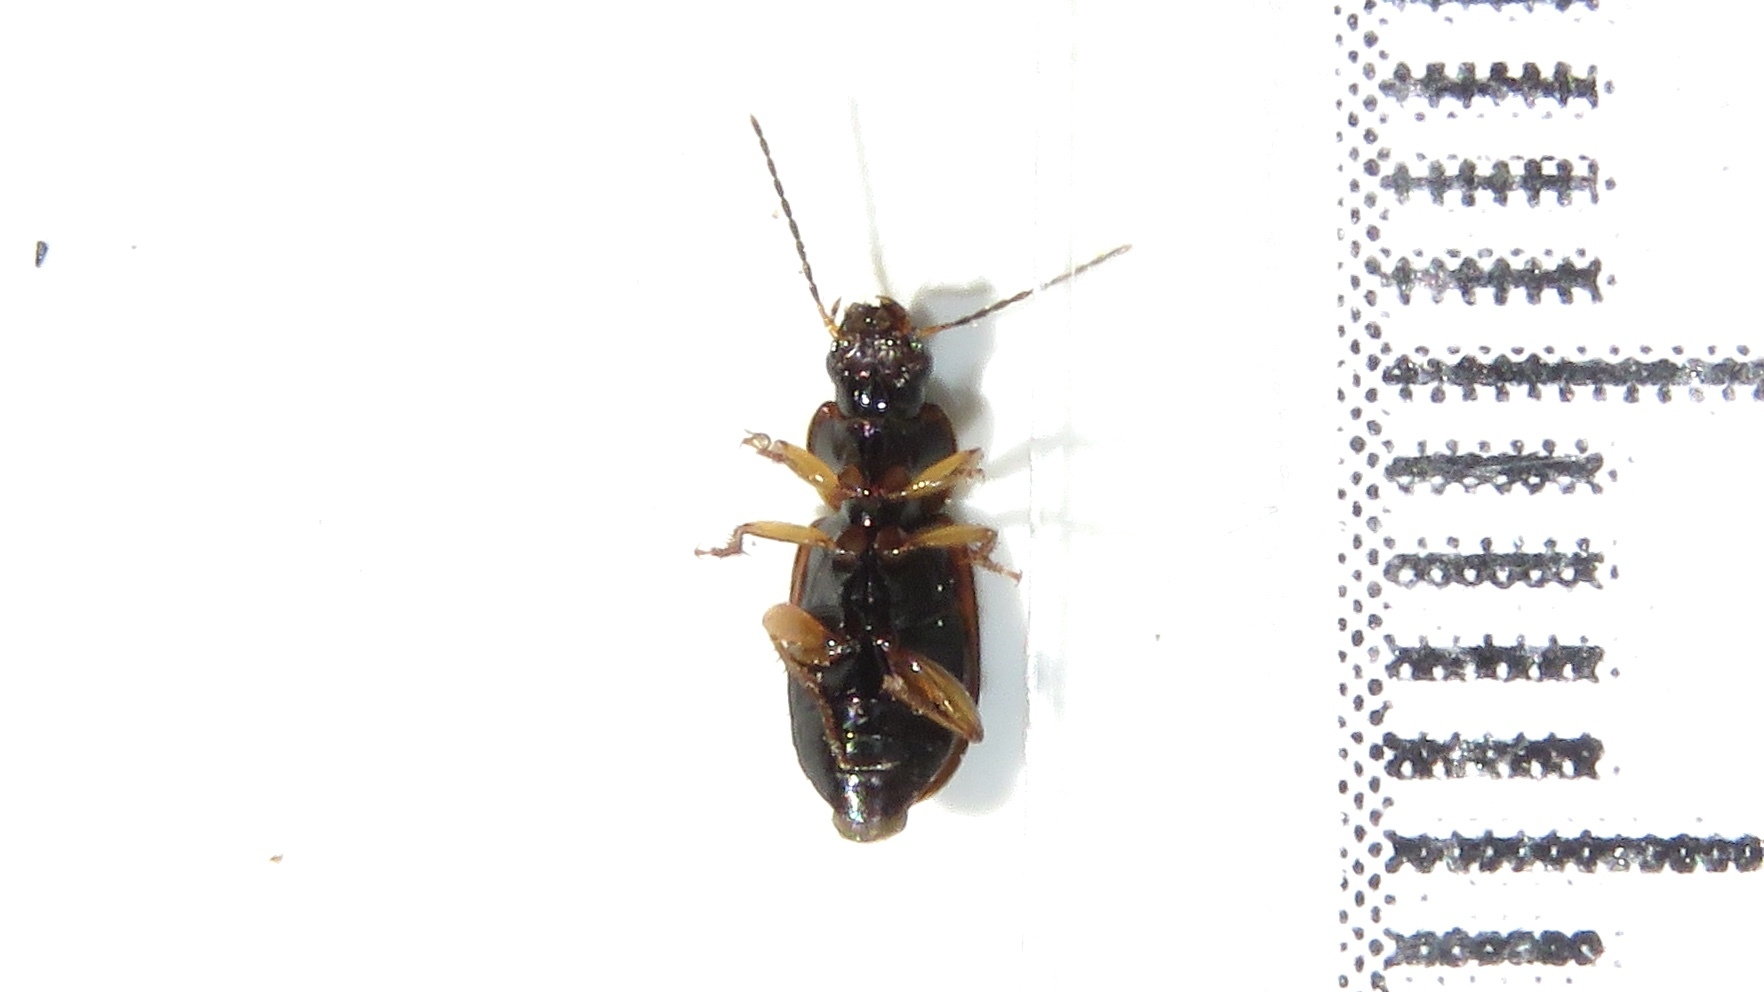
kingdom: Animalia
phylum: Arthropoda
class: Insecta
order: Coleoptera
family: Carabidae
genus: Stenolophus
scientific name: Stenolophus plebejus
